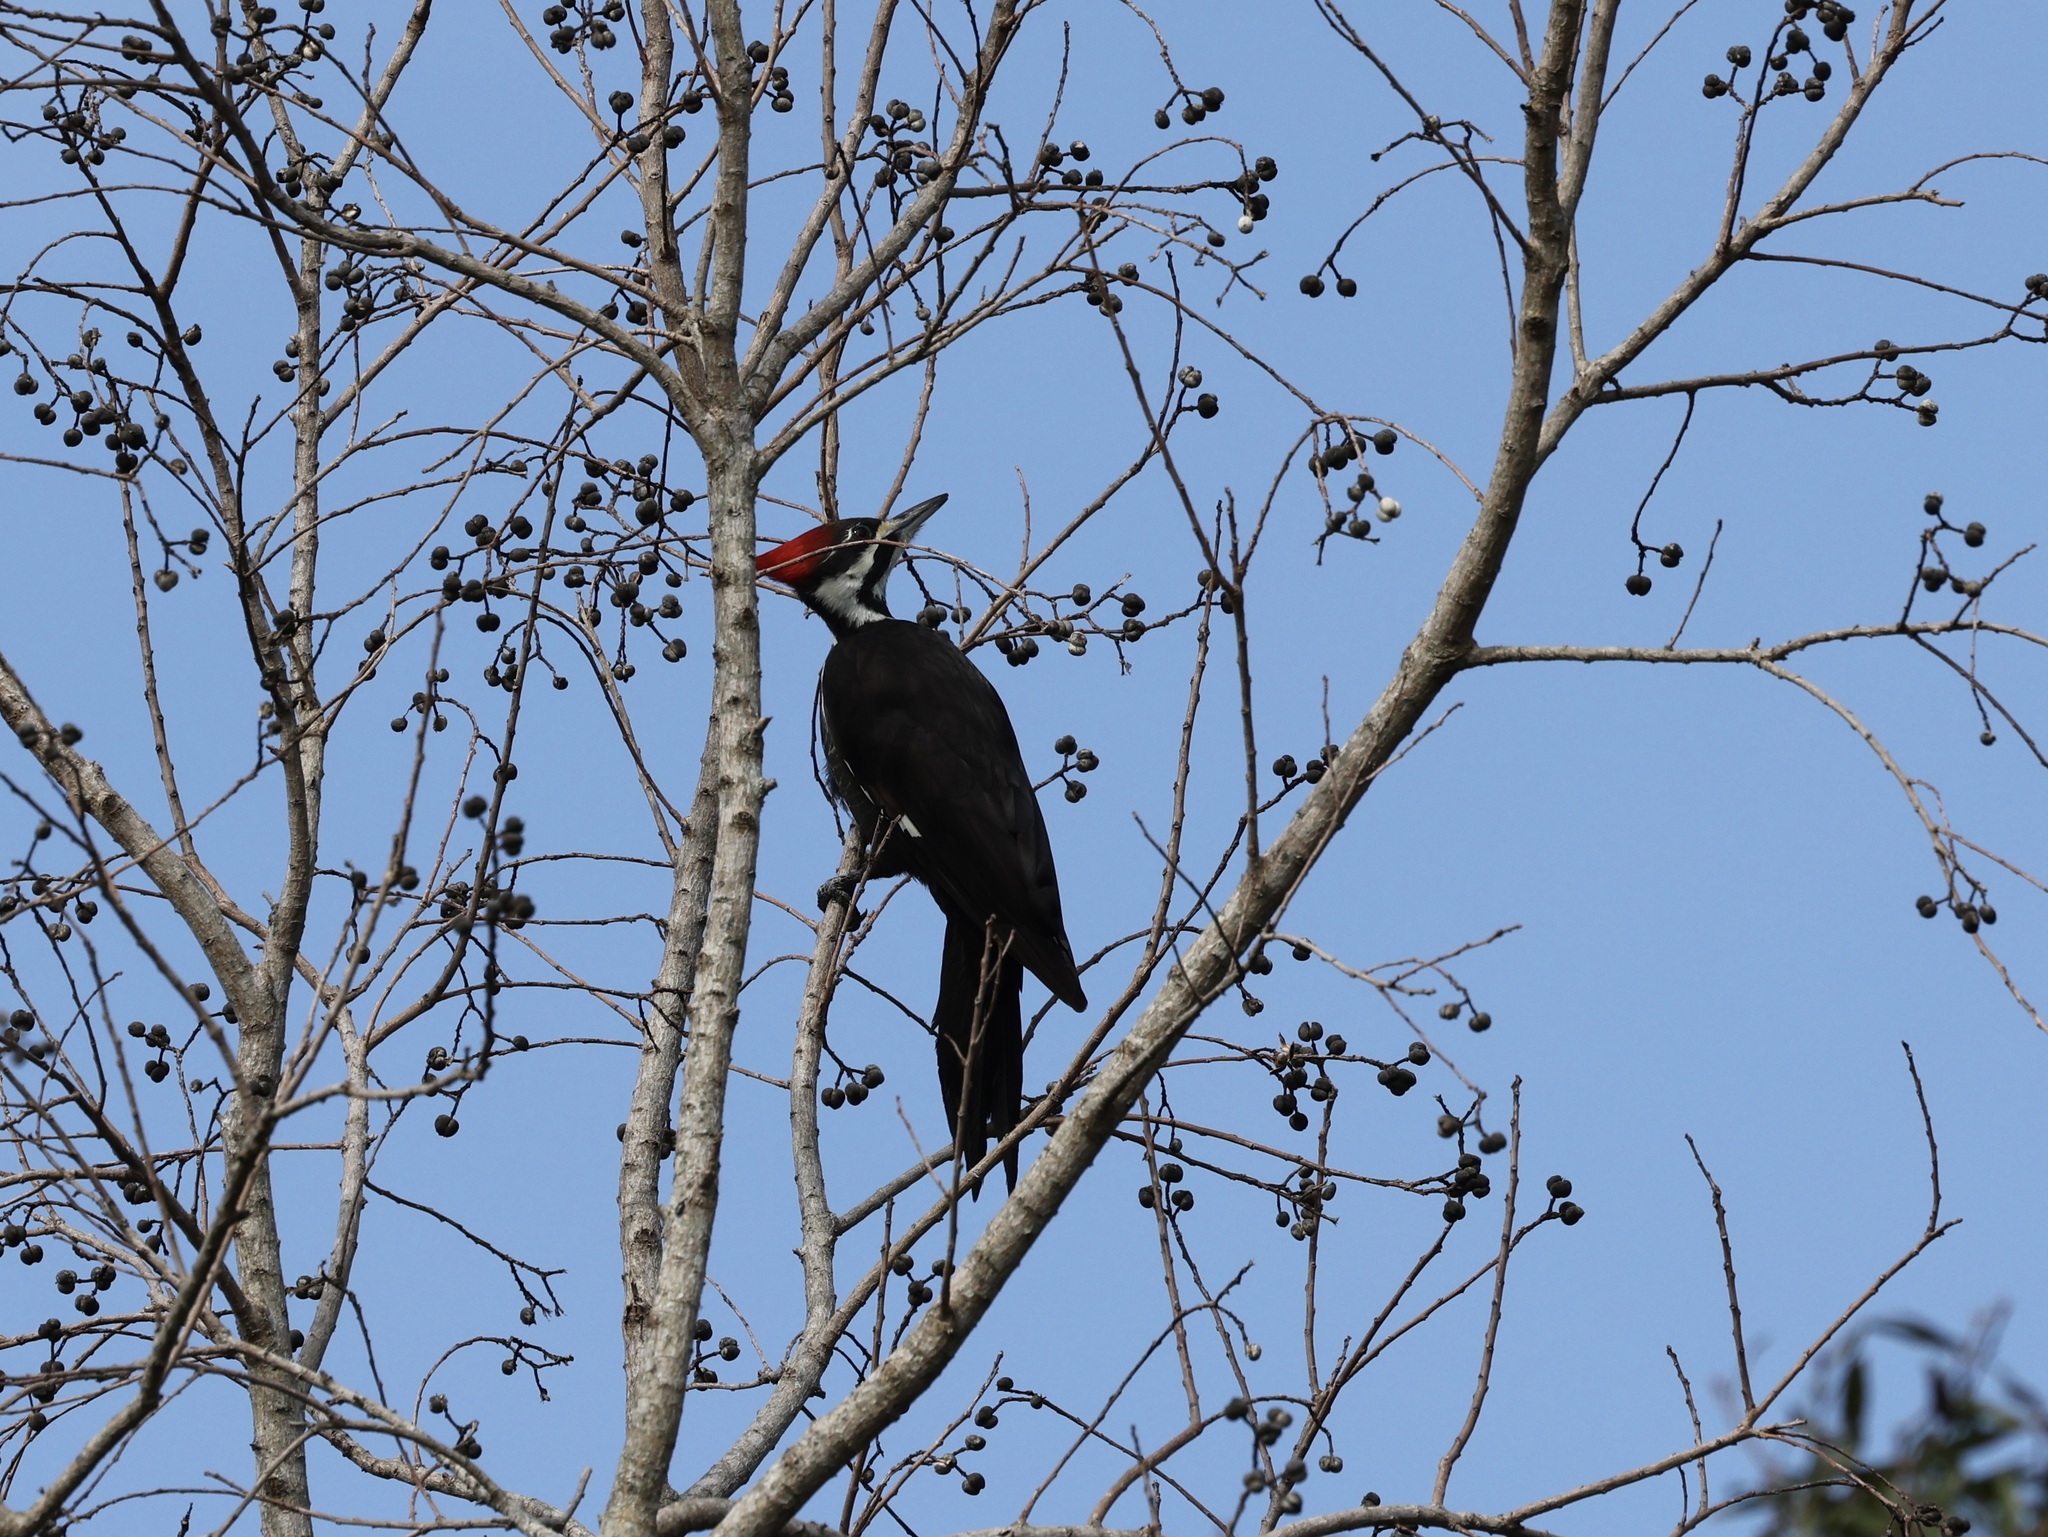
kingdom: Animalia
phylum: Chordata
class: Aves
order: Piciformes
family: Picidae
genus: Dryocopus
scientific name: Dryocopus pileatus
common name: Pileated woodpecker
